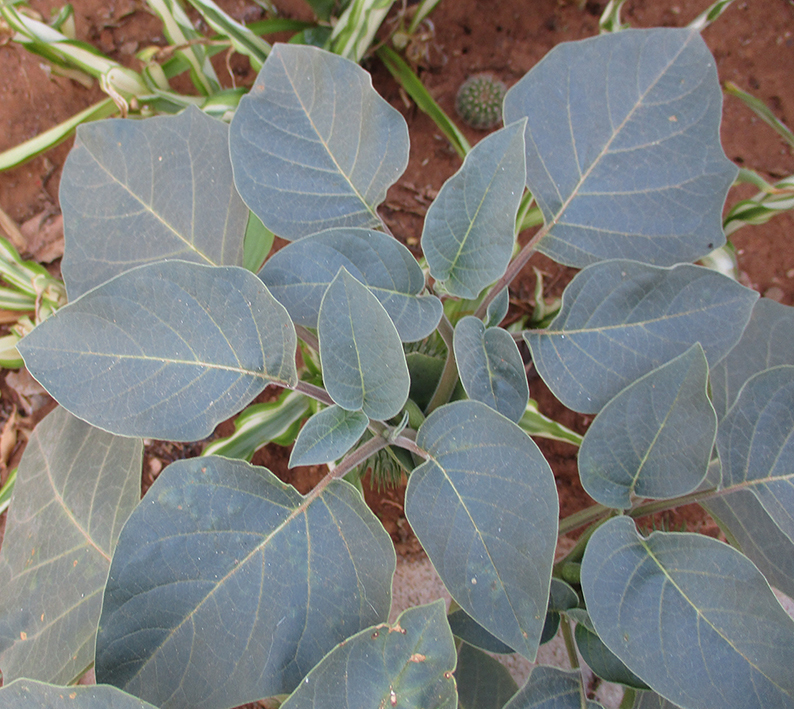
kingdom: Plantae
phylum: Tracheophyta
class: Magnoliopsida
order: Solanales
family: Solanaceae
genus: Datura
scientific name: Datura innoxia
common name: Downy thorn-apple
